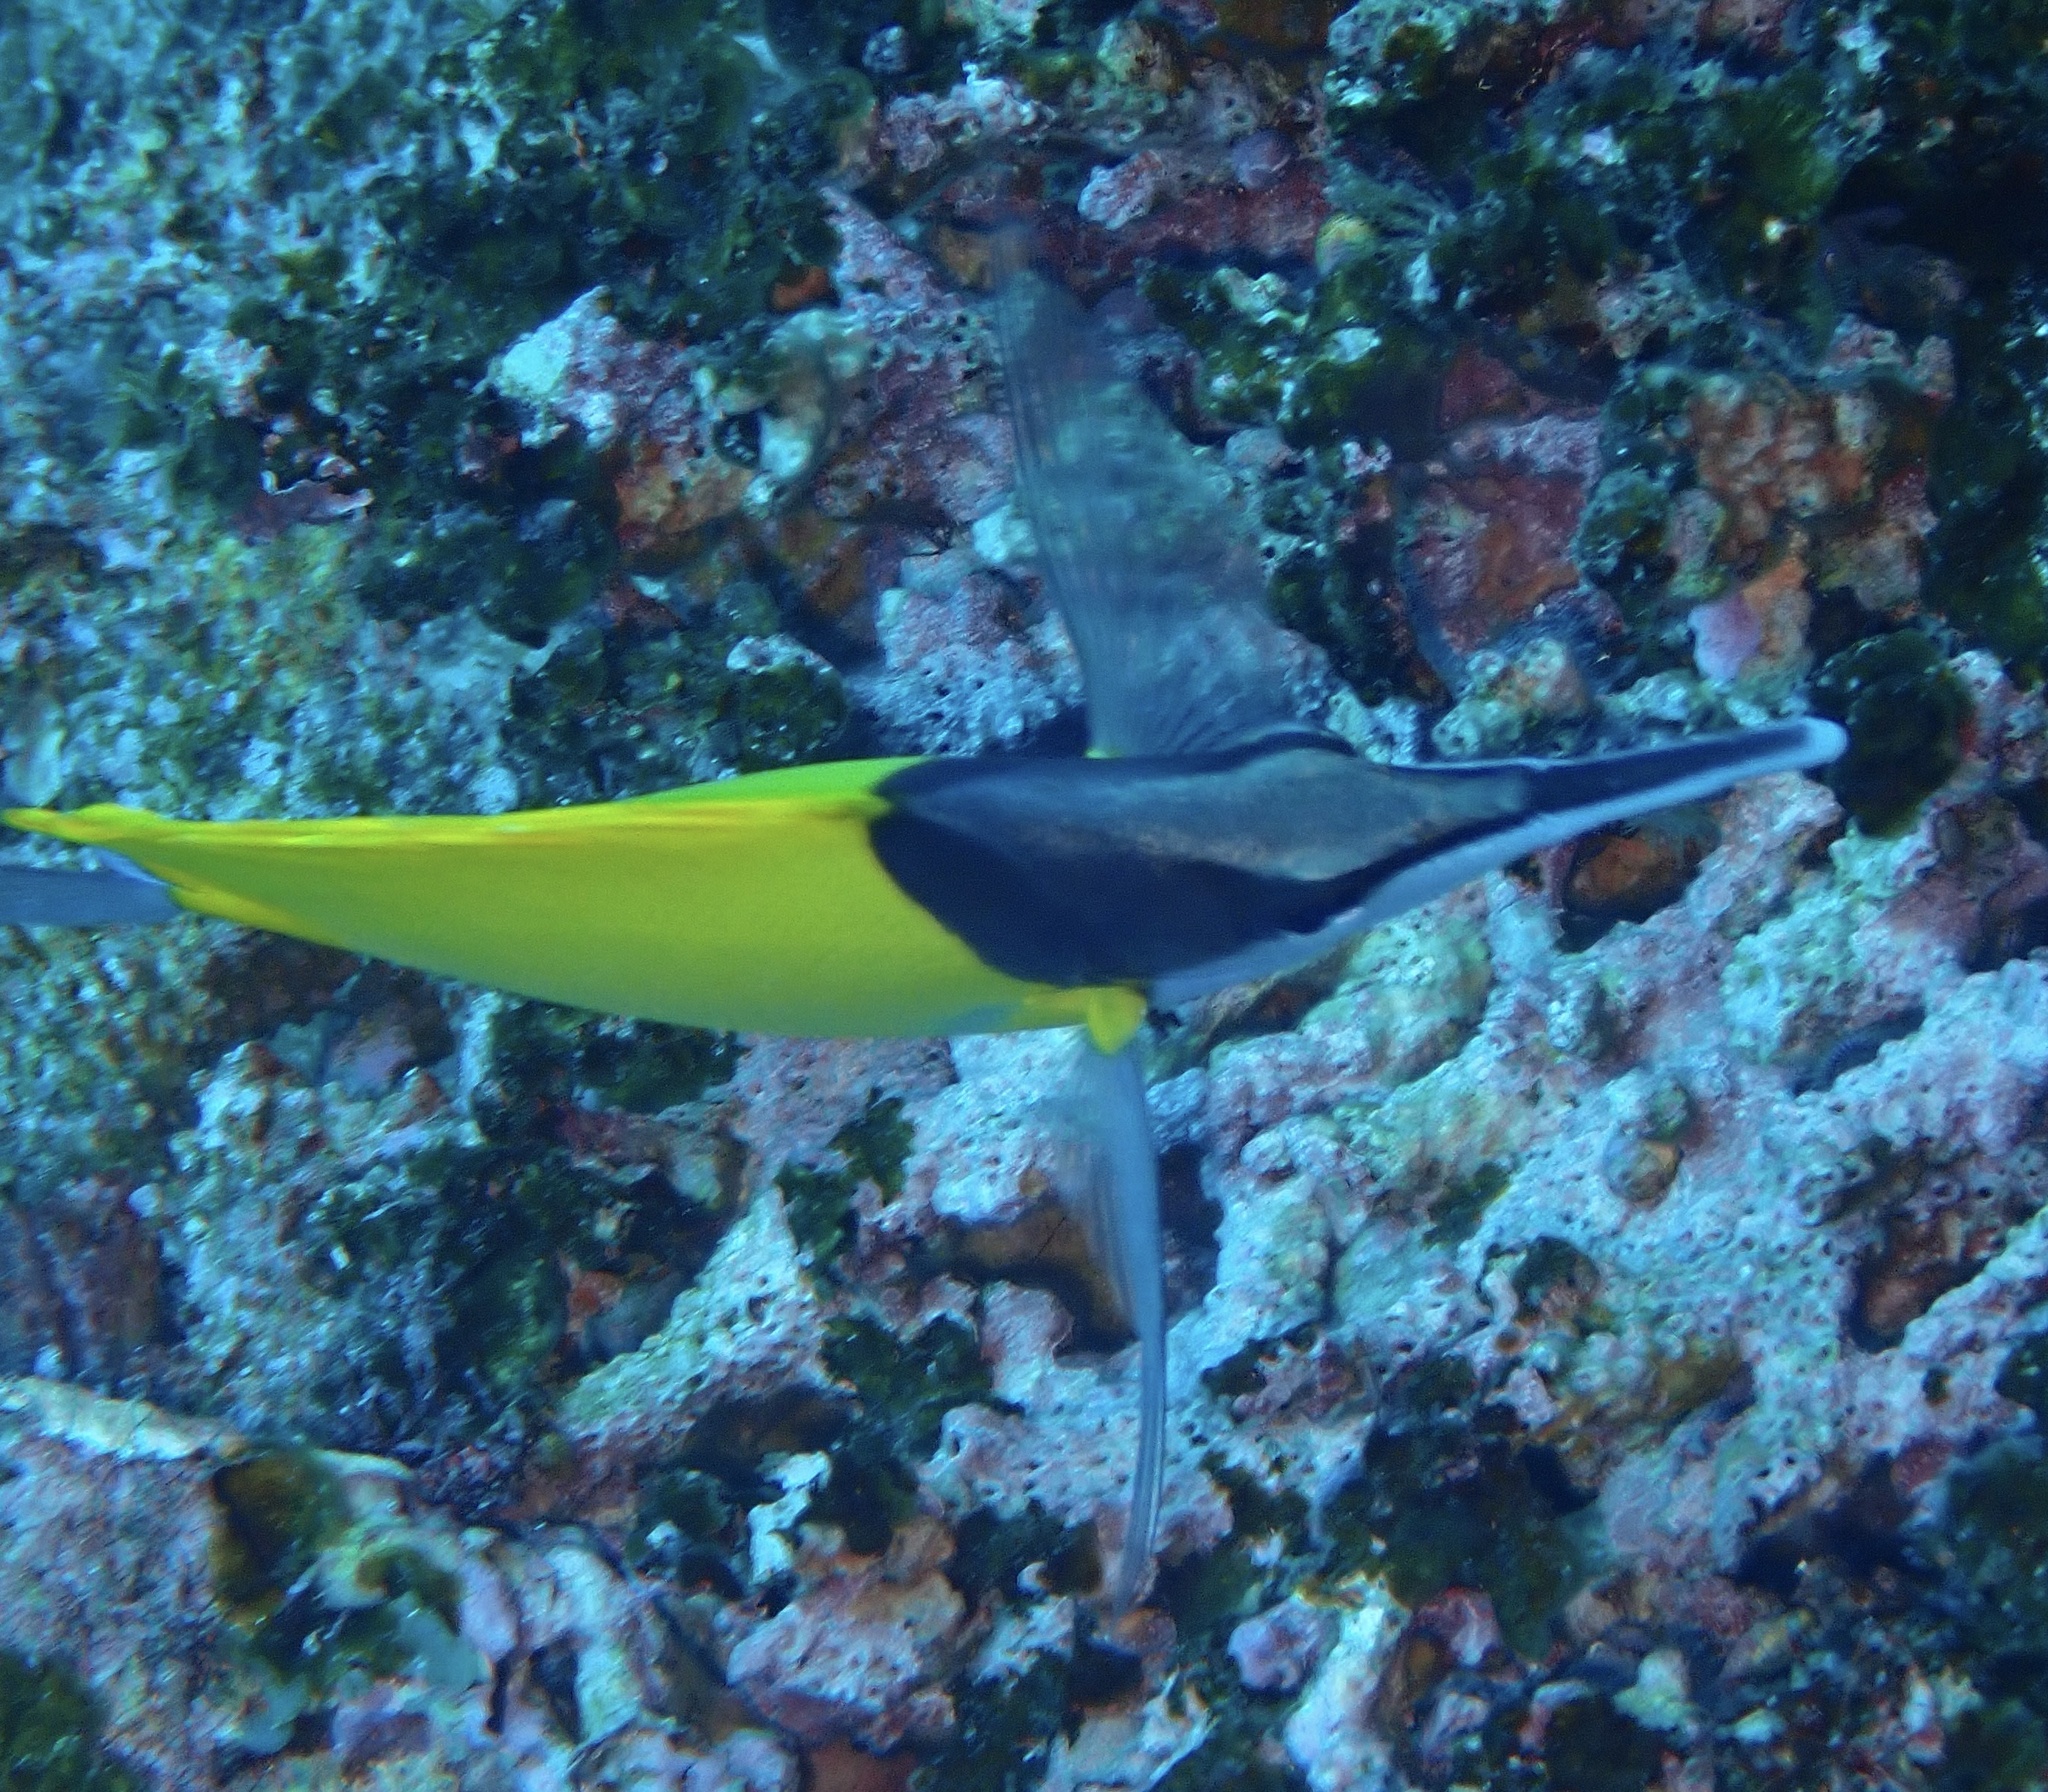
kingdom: Animalia
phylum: Chordata
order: Perciformes
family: Chaetodontidae
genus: Forcipiger
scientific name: Forcipiger flavissimus
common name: Forcepsfish
